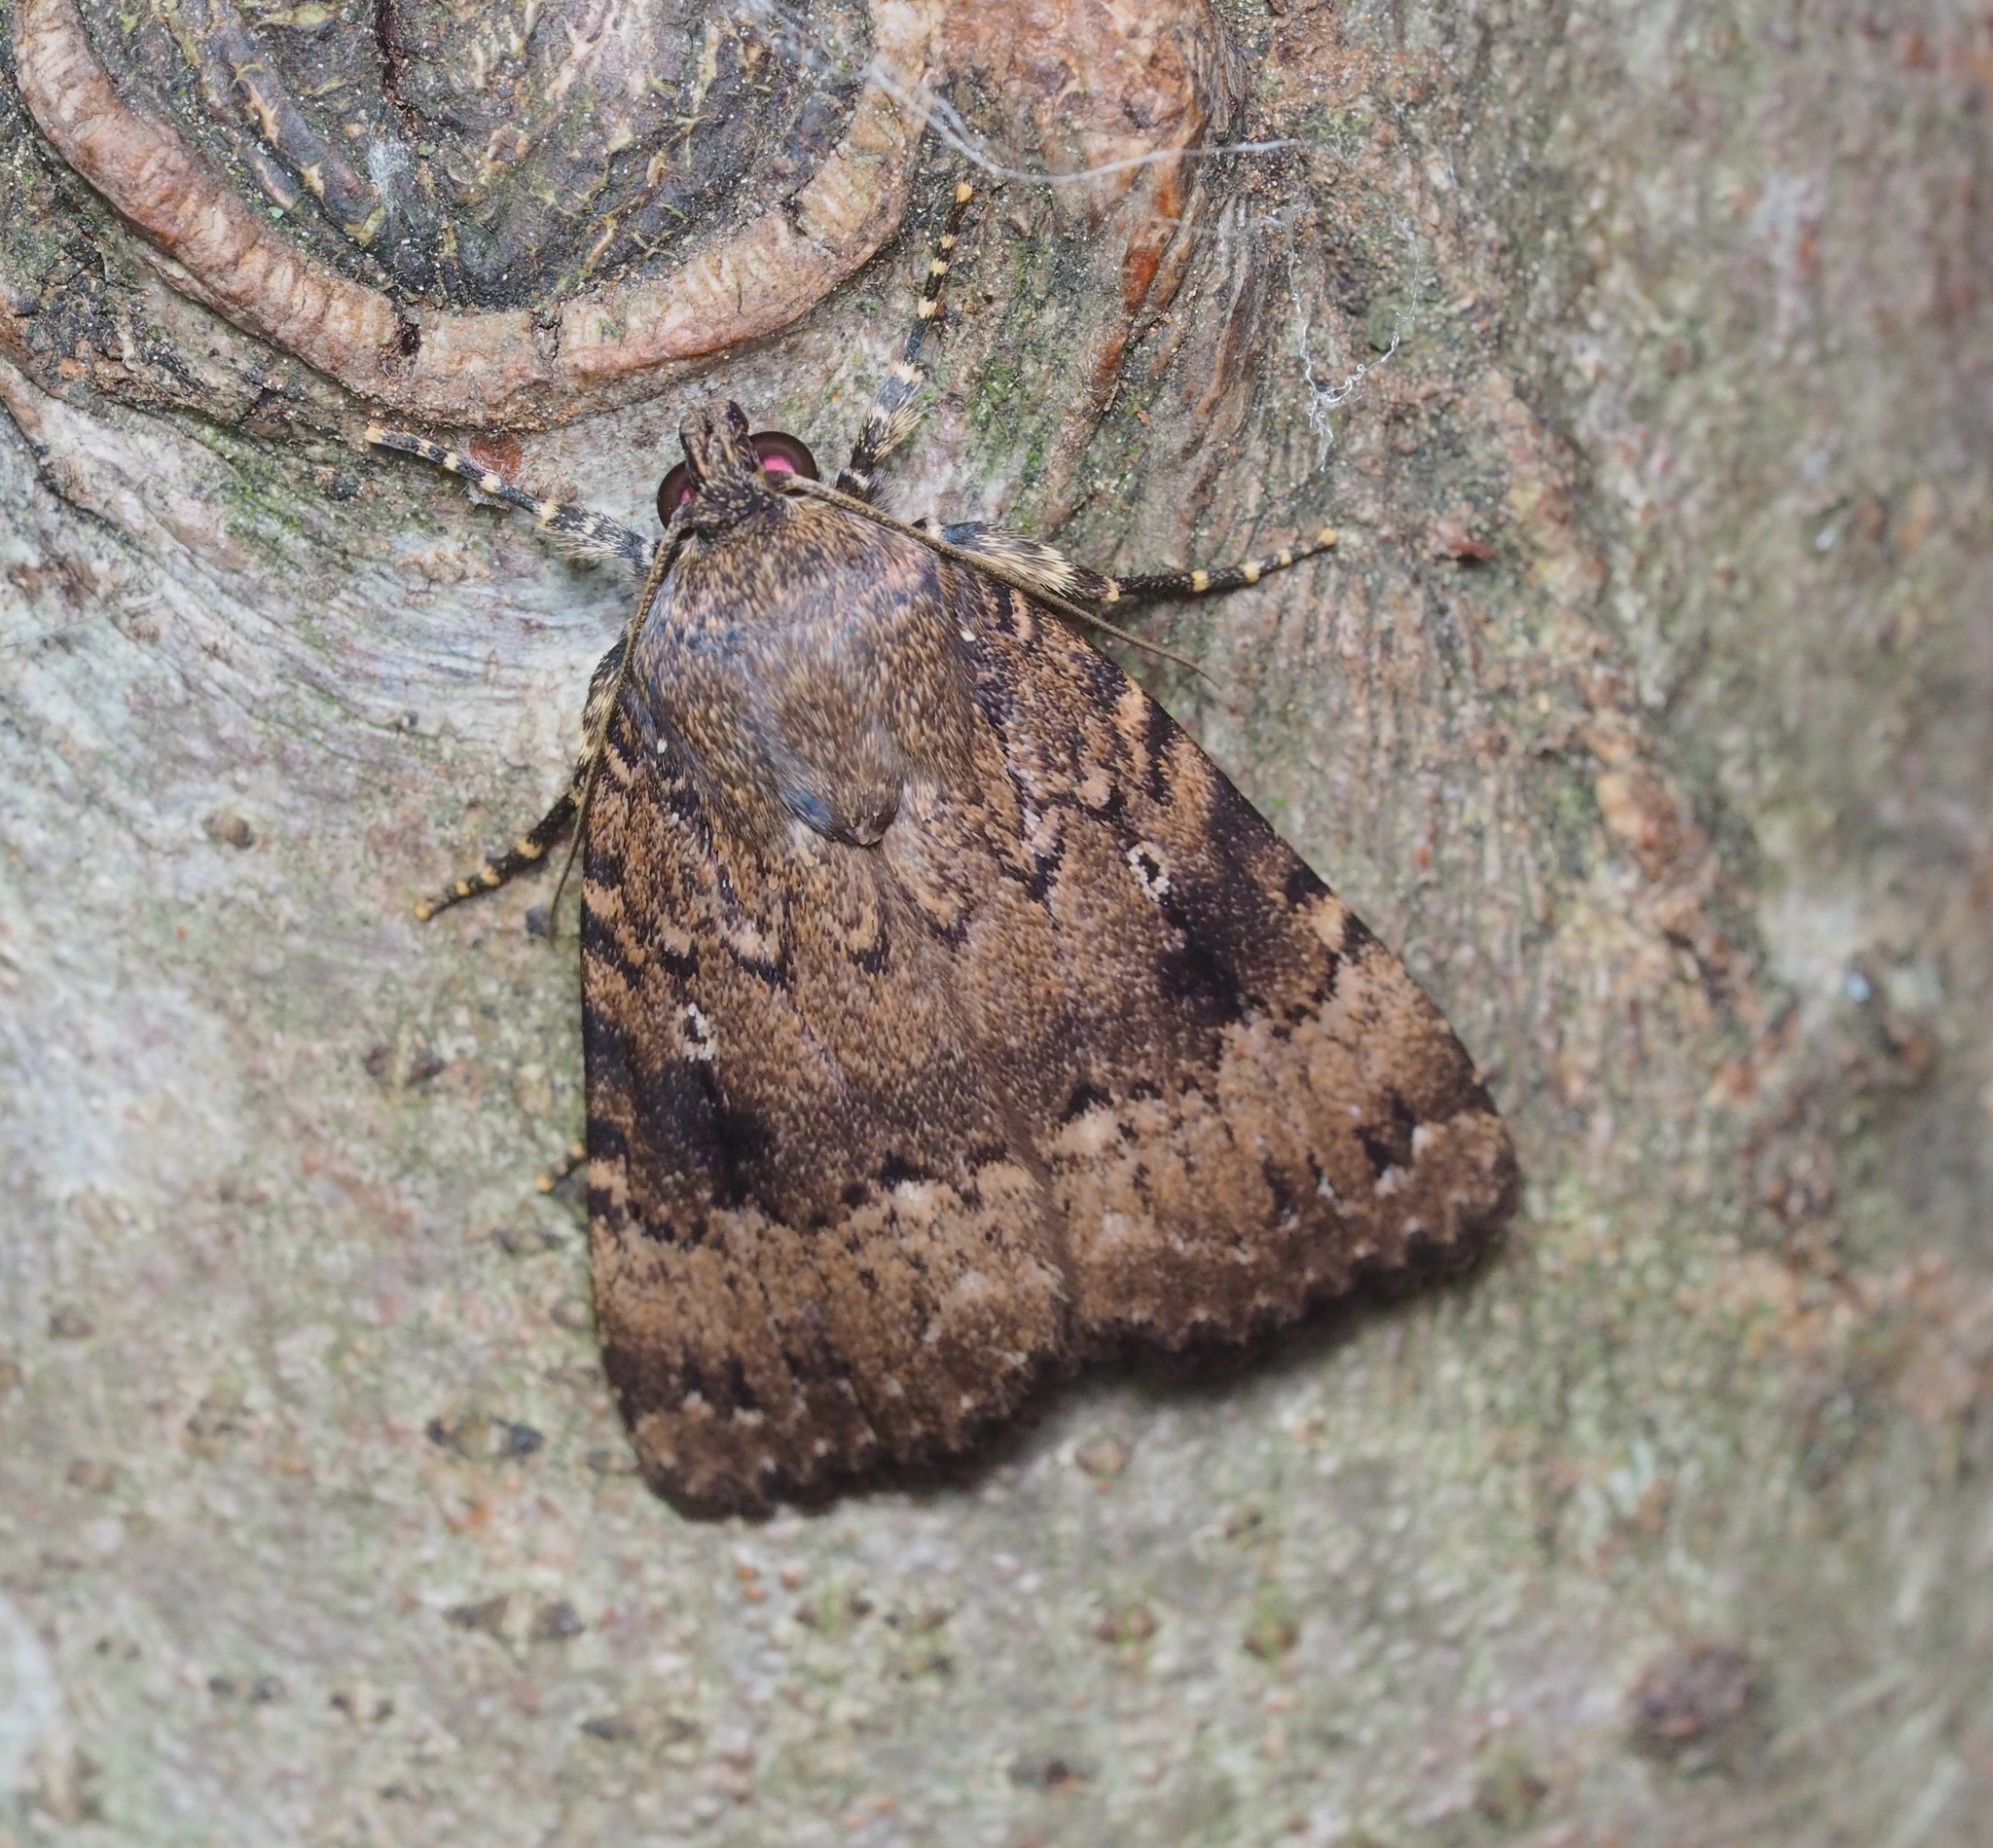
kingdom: Animalia
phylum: Arthropoda
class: Insecta
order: Lepidoptera
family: Noctuidae
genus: Amphipyra
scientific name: Amphipyra pyramidea
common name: Copper underwing
